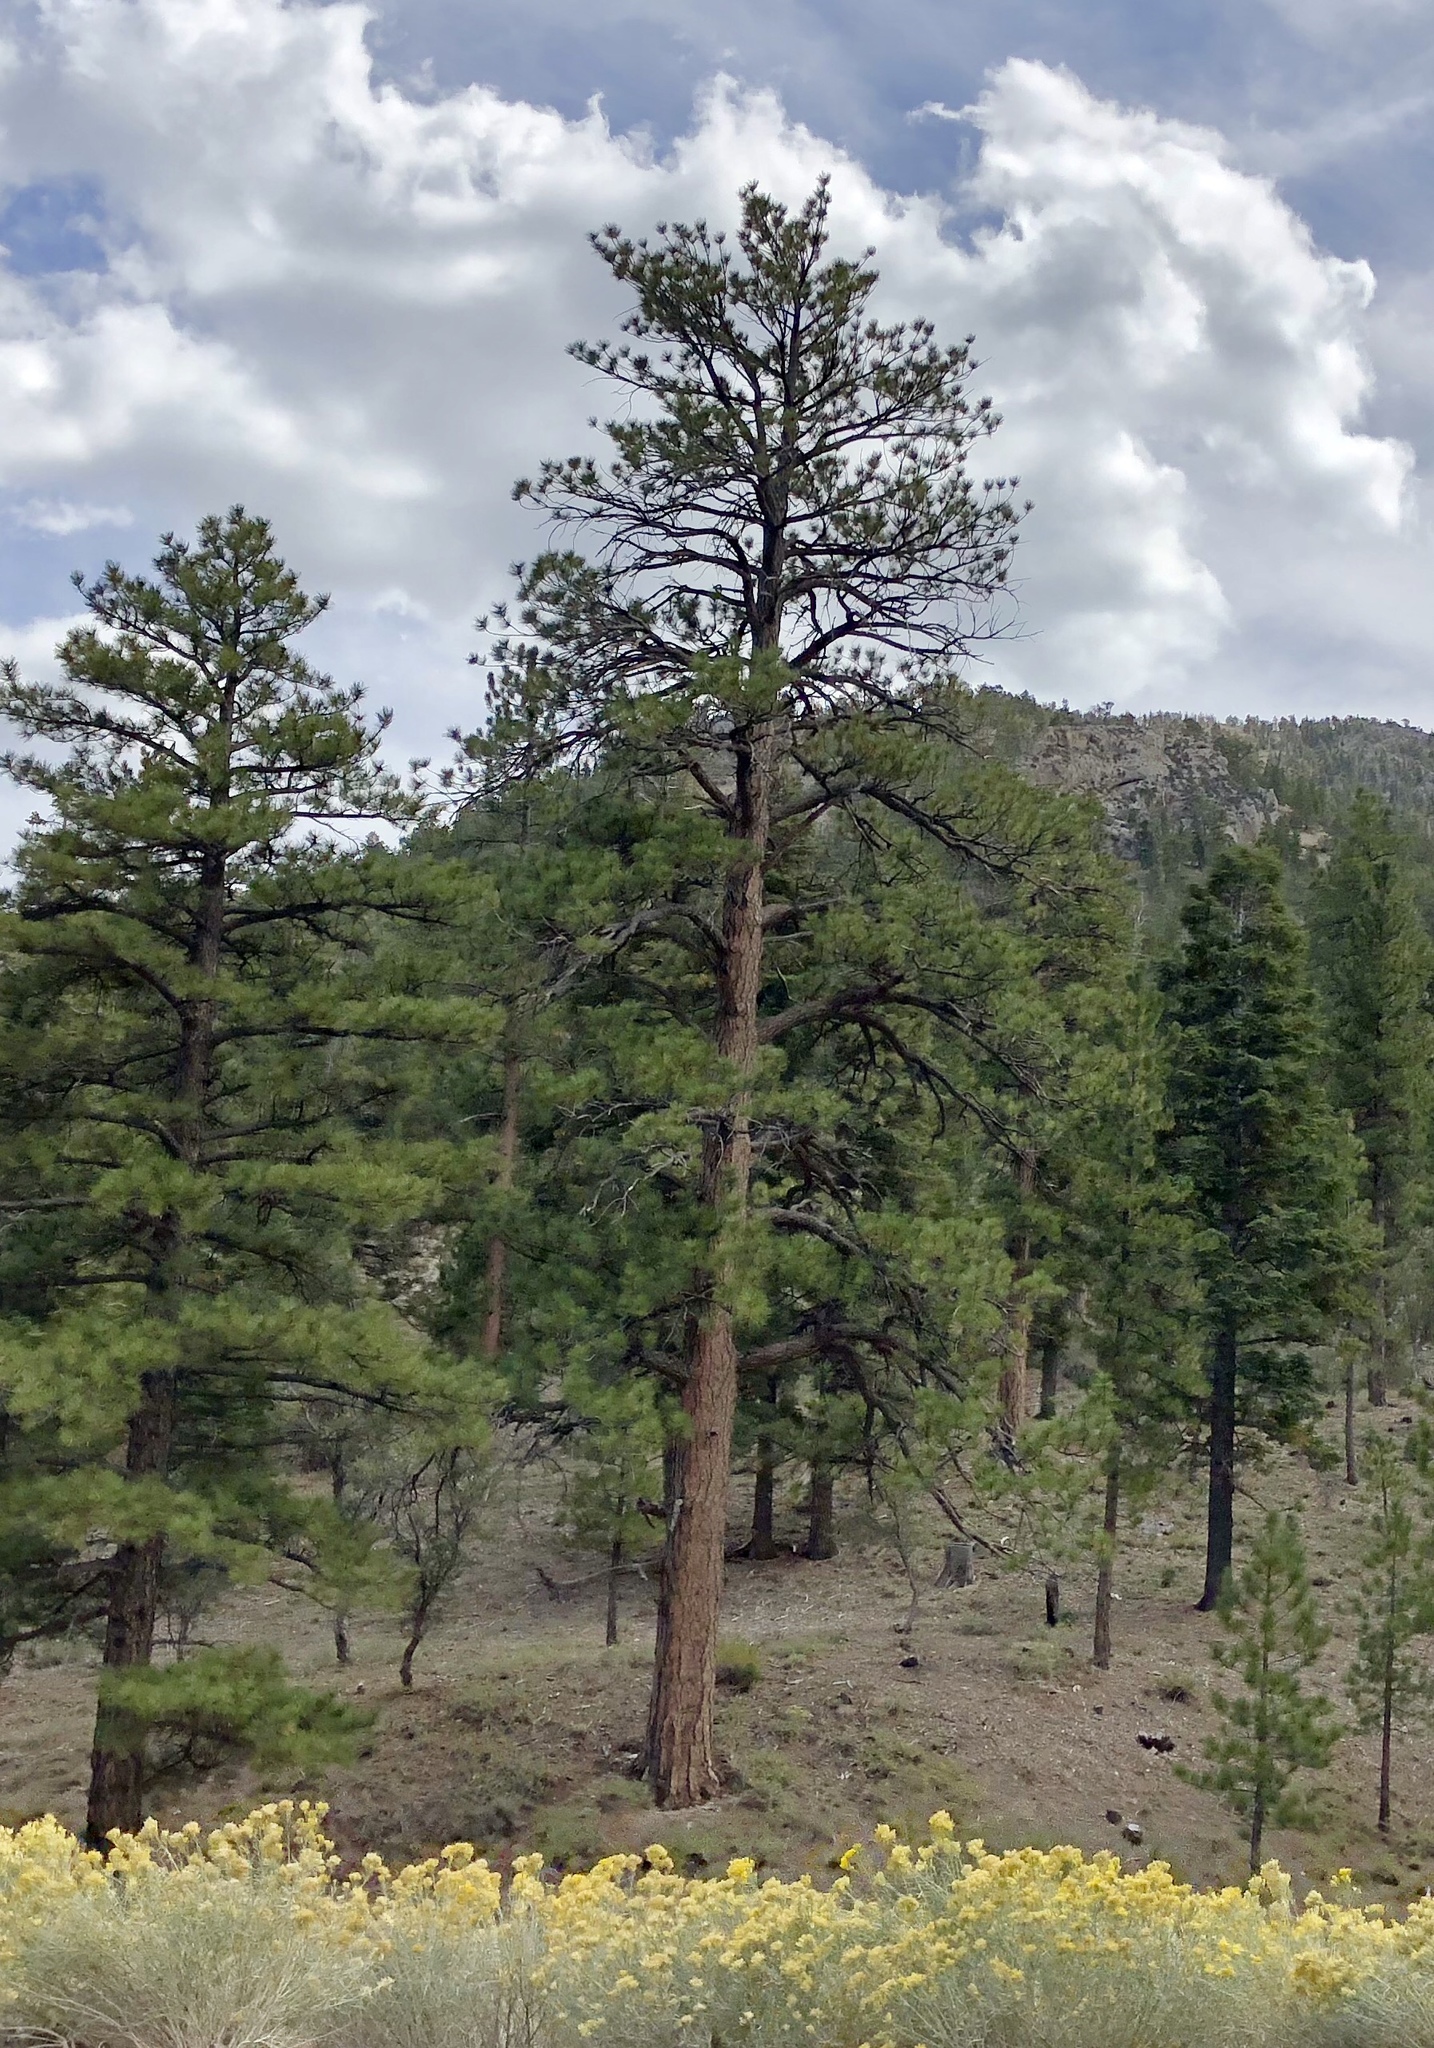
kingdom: Plantae
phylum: Tracheophyta
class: Pinopsida
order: Pinales
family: Pinaceae
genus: Pinus
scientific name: Pinus ponderosa
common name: Western yellow-pine
